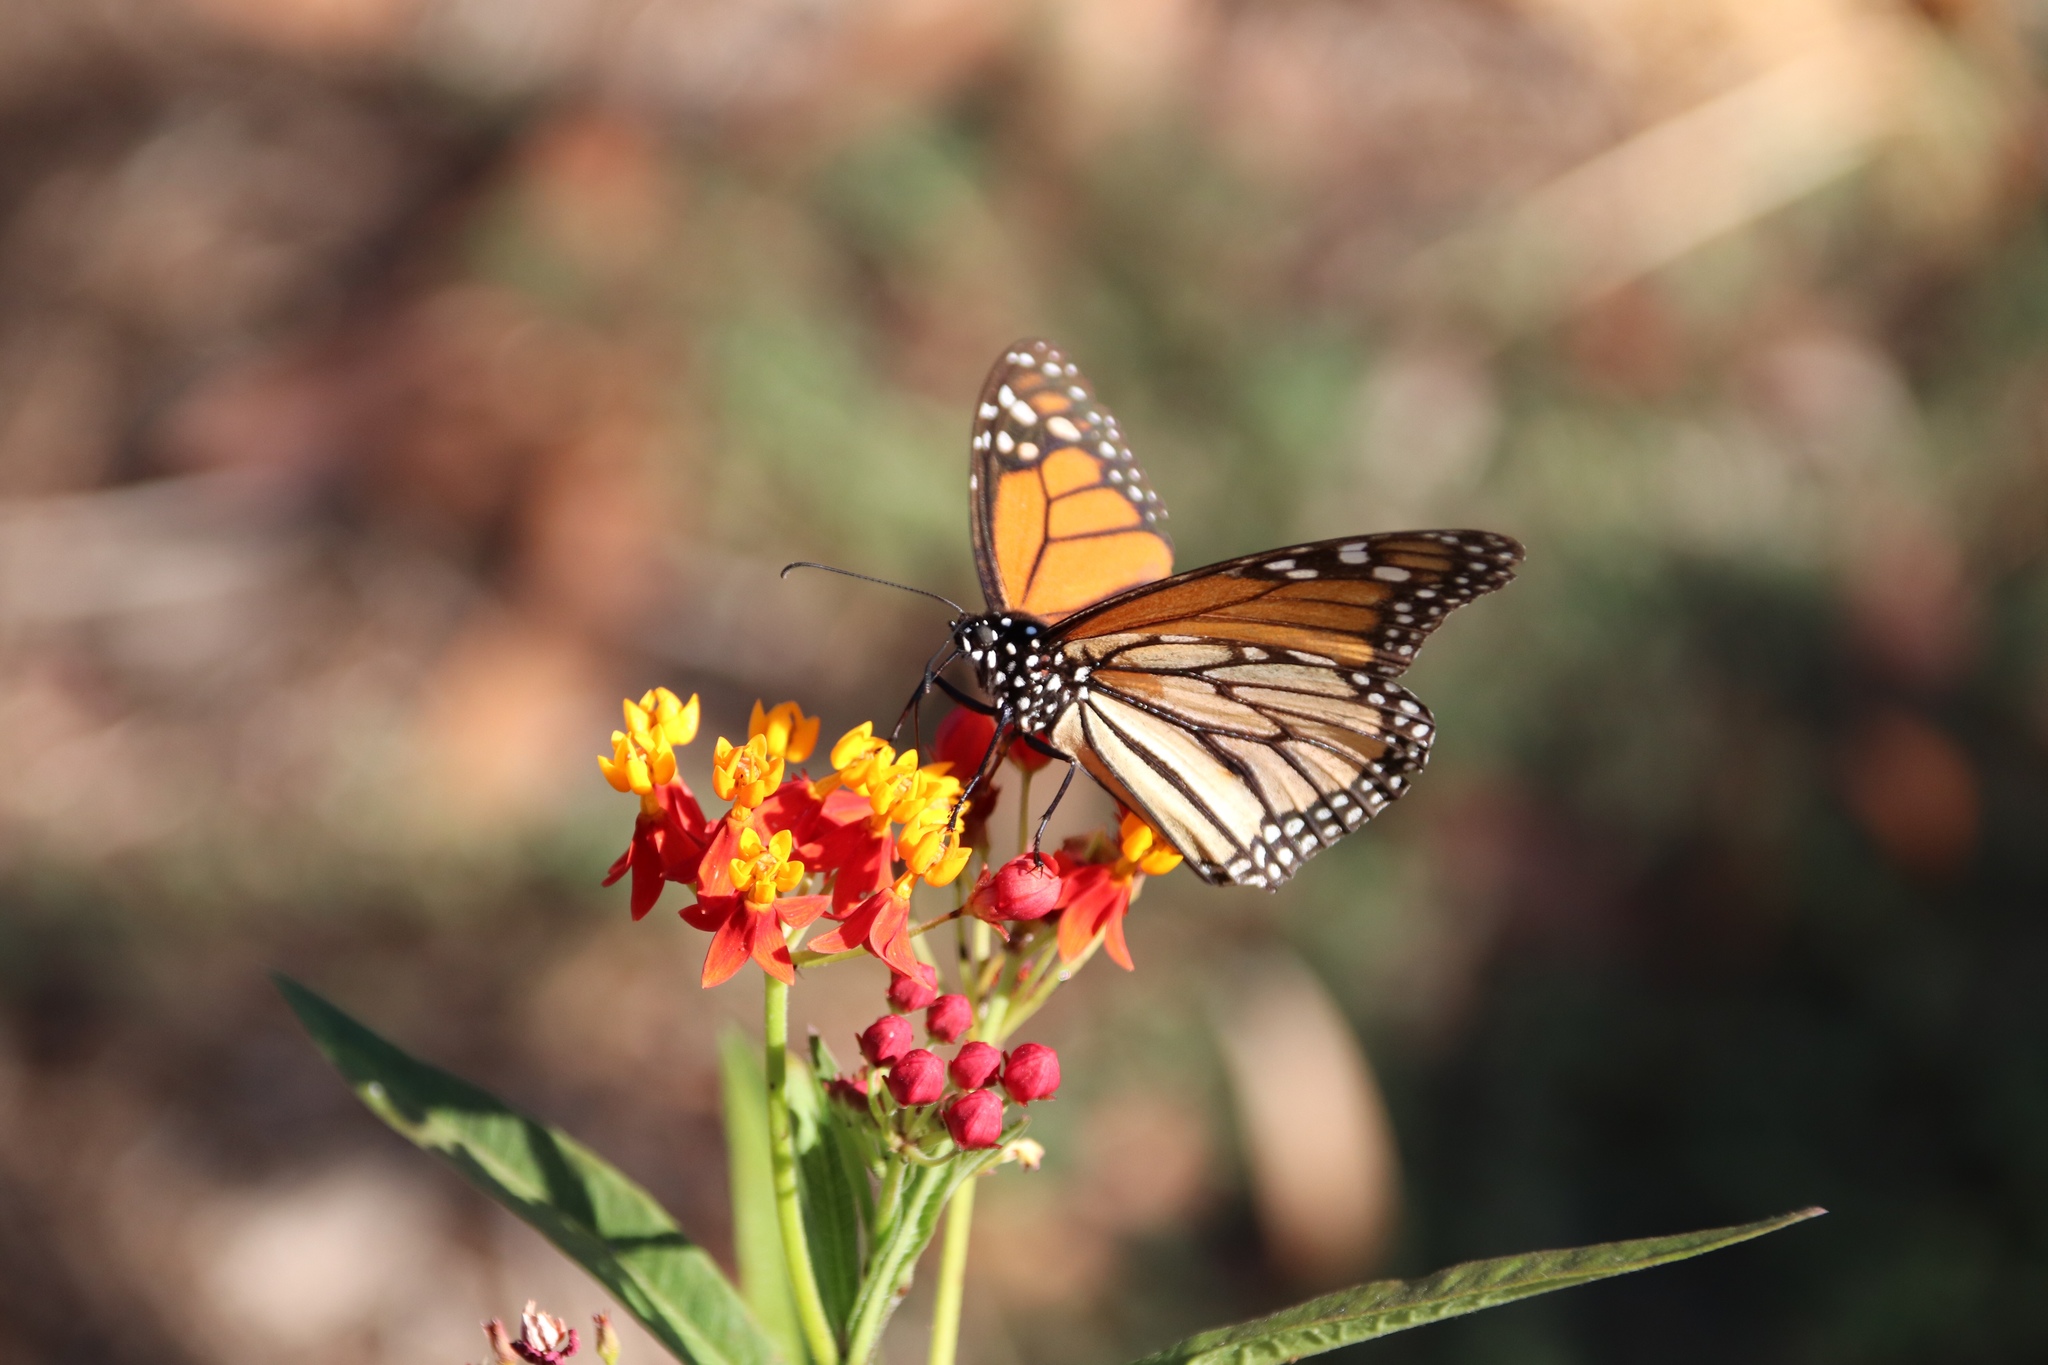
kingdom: Animalia
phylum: Arthropoda
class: Insecta
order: Lepidoptera
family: Nymphalidae
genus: Danaus
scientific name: Danaus plexippus
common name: Monarch
